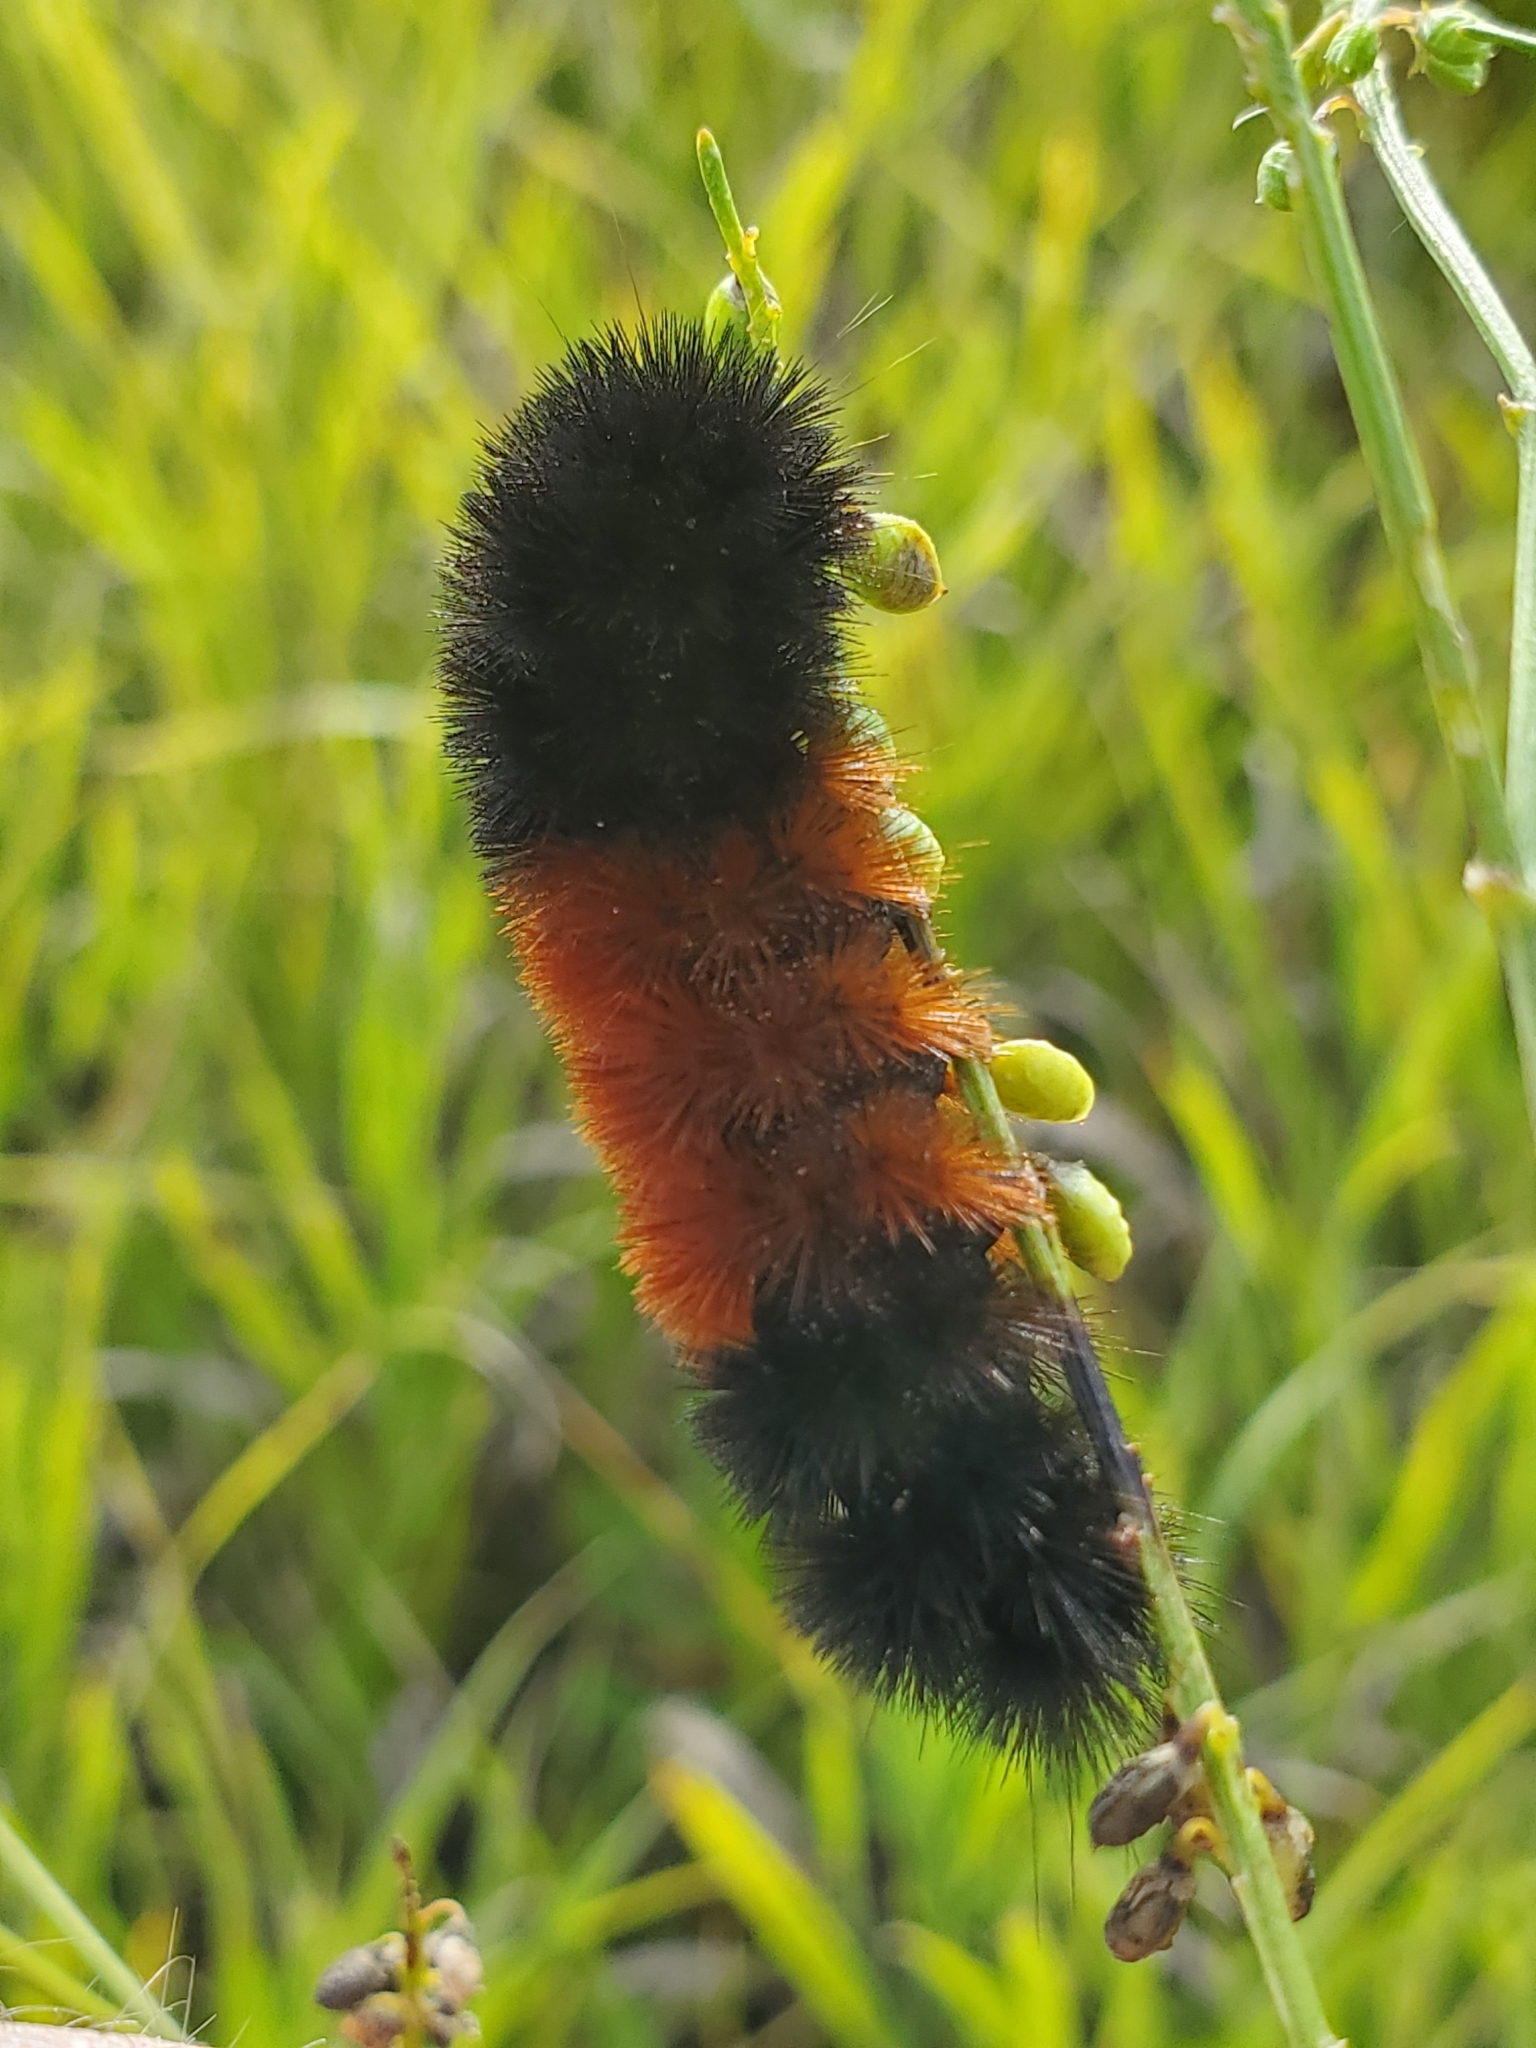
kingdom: Animalia
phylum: Arthropoda
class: Insecta
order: Lepidoptera
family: Erebidae
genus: Pyrrharctia
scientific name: Pyrrharctia isabella
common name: Isabella tiger moth
